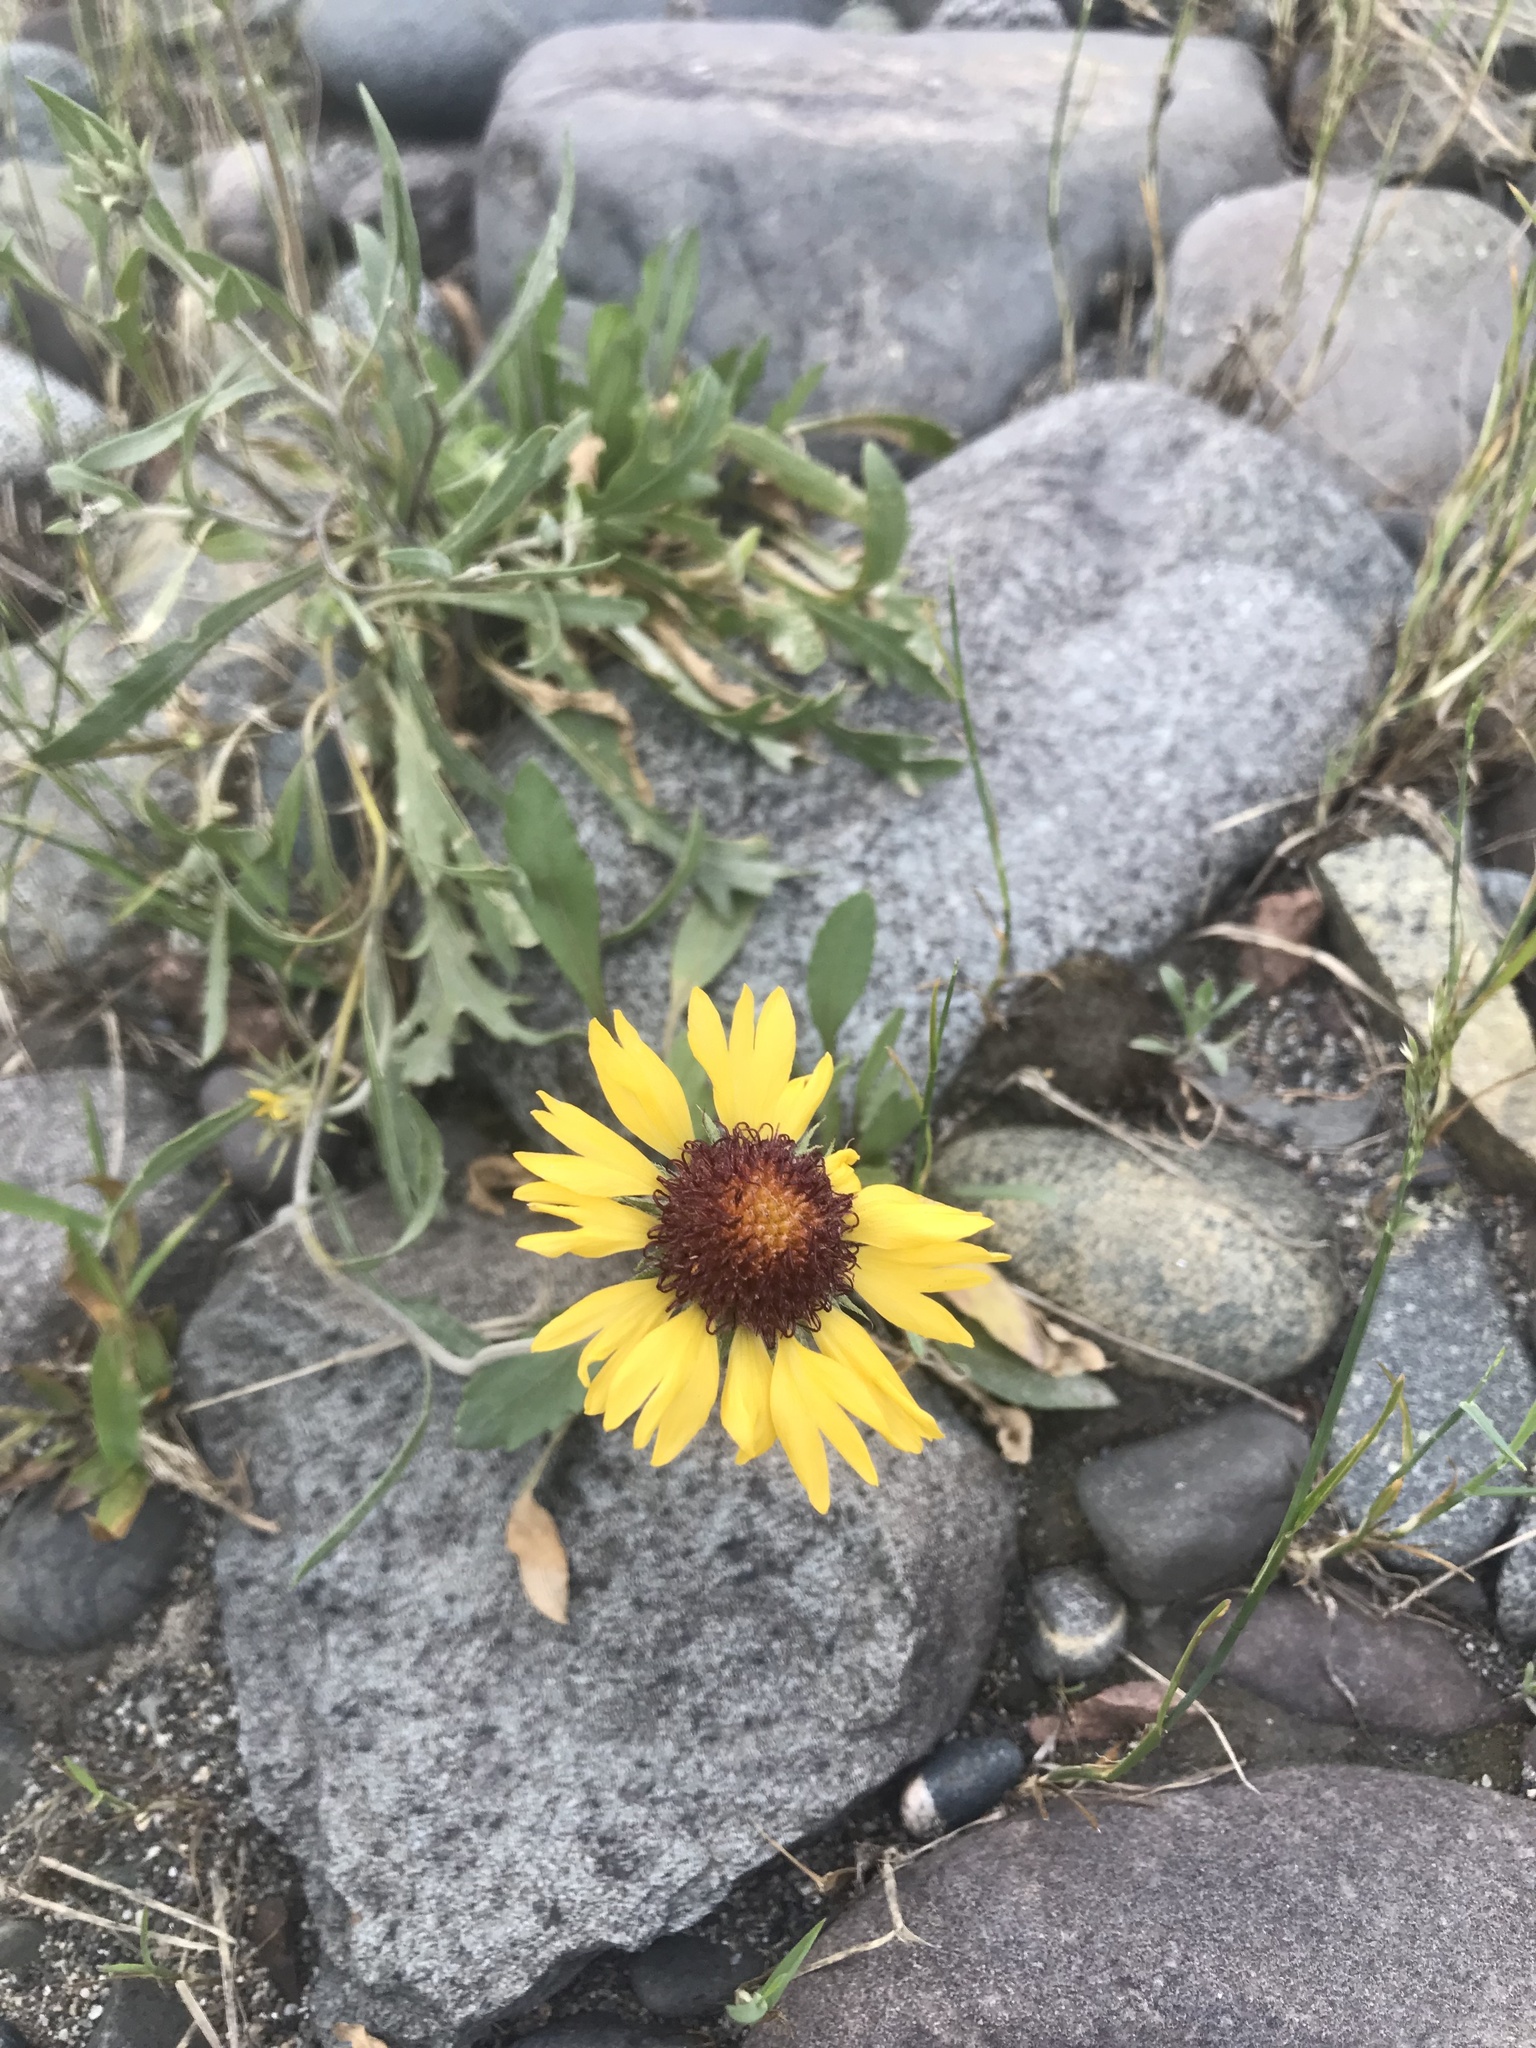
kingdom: Plantae
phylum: Tracheophyta
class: Magnoliopsida
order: Asterales
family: Asteraceae
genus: Gaillardia
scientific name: Gaillardia aristata
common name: Blanket-flower
